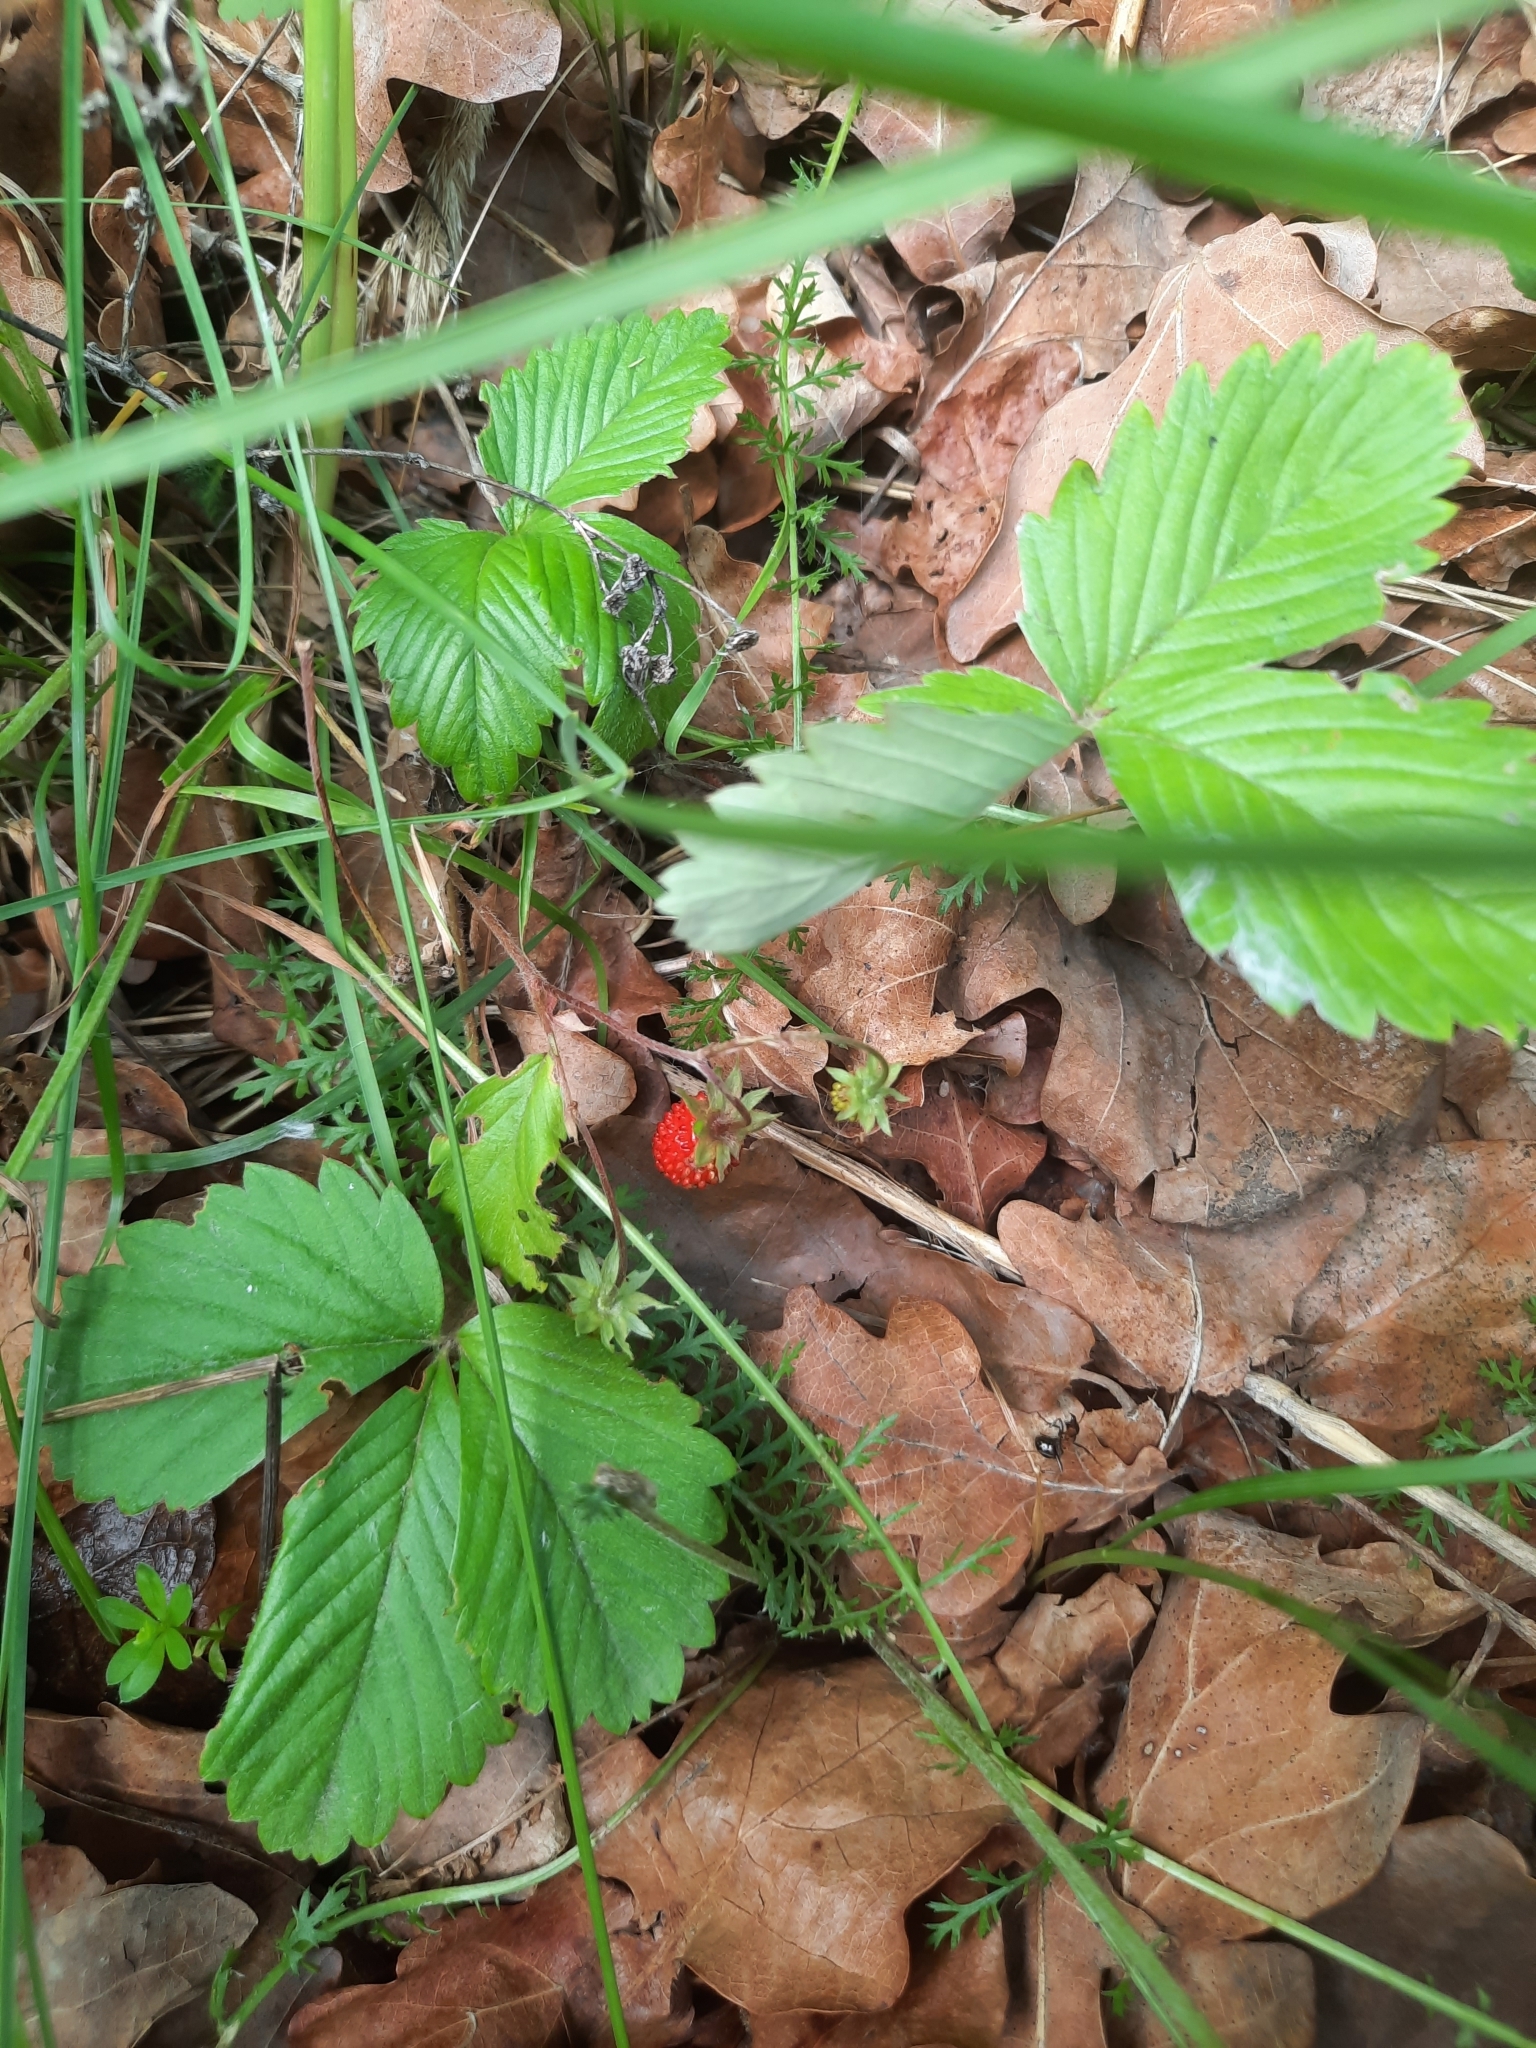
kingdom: Plantae
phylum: Tracheophyta
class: Magnoliopsida
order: Rosales
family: Rosaceae
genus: Fragaria
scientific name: Fragaria vesca
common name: Wild strawberry
